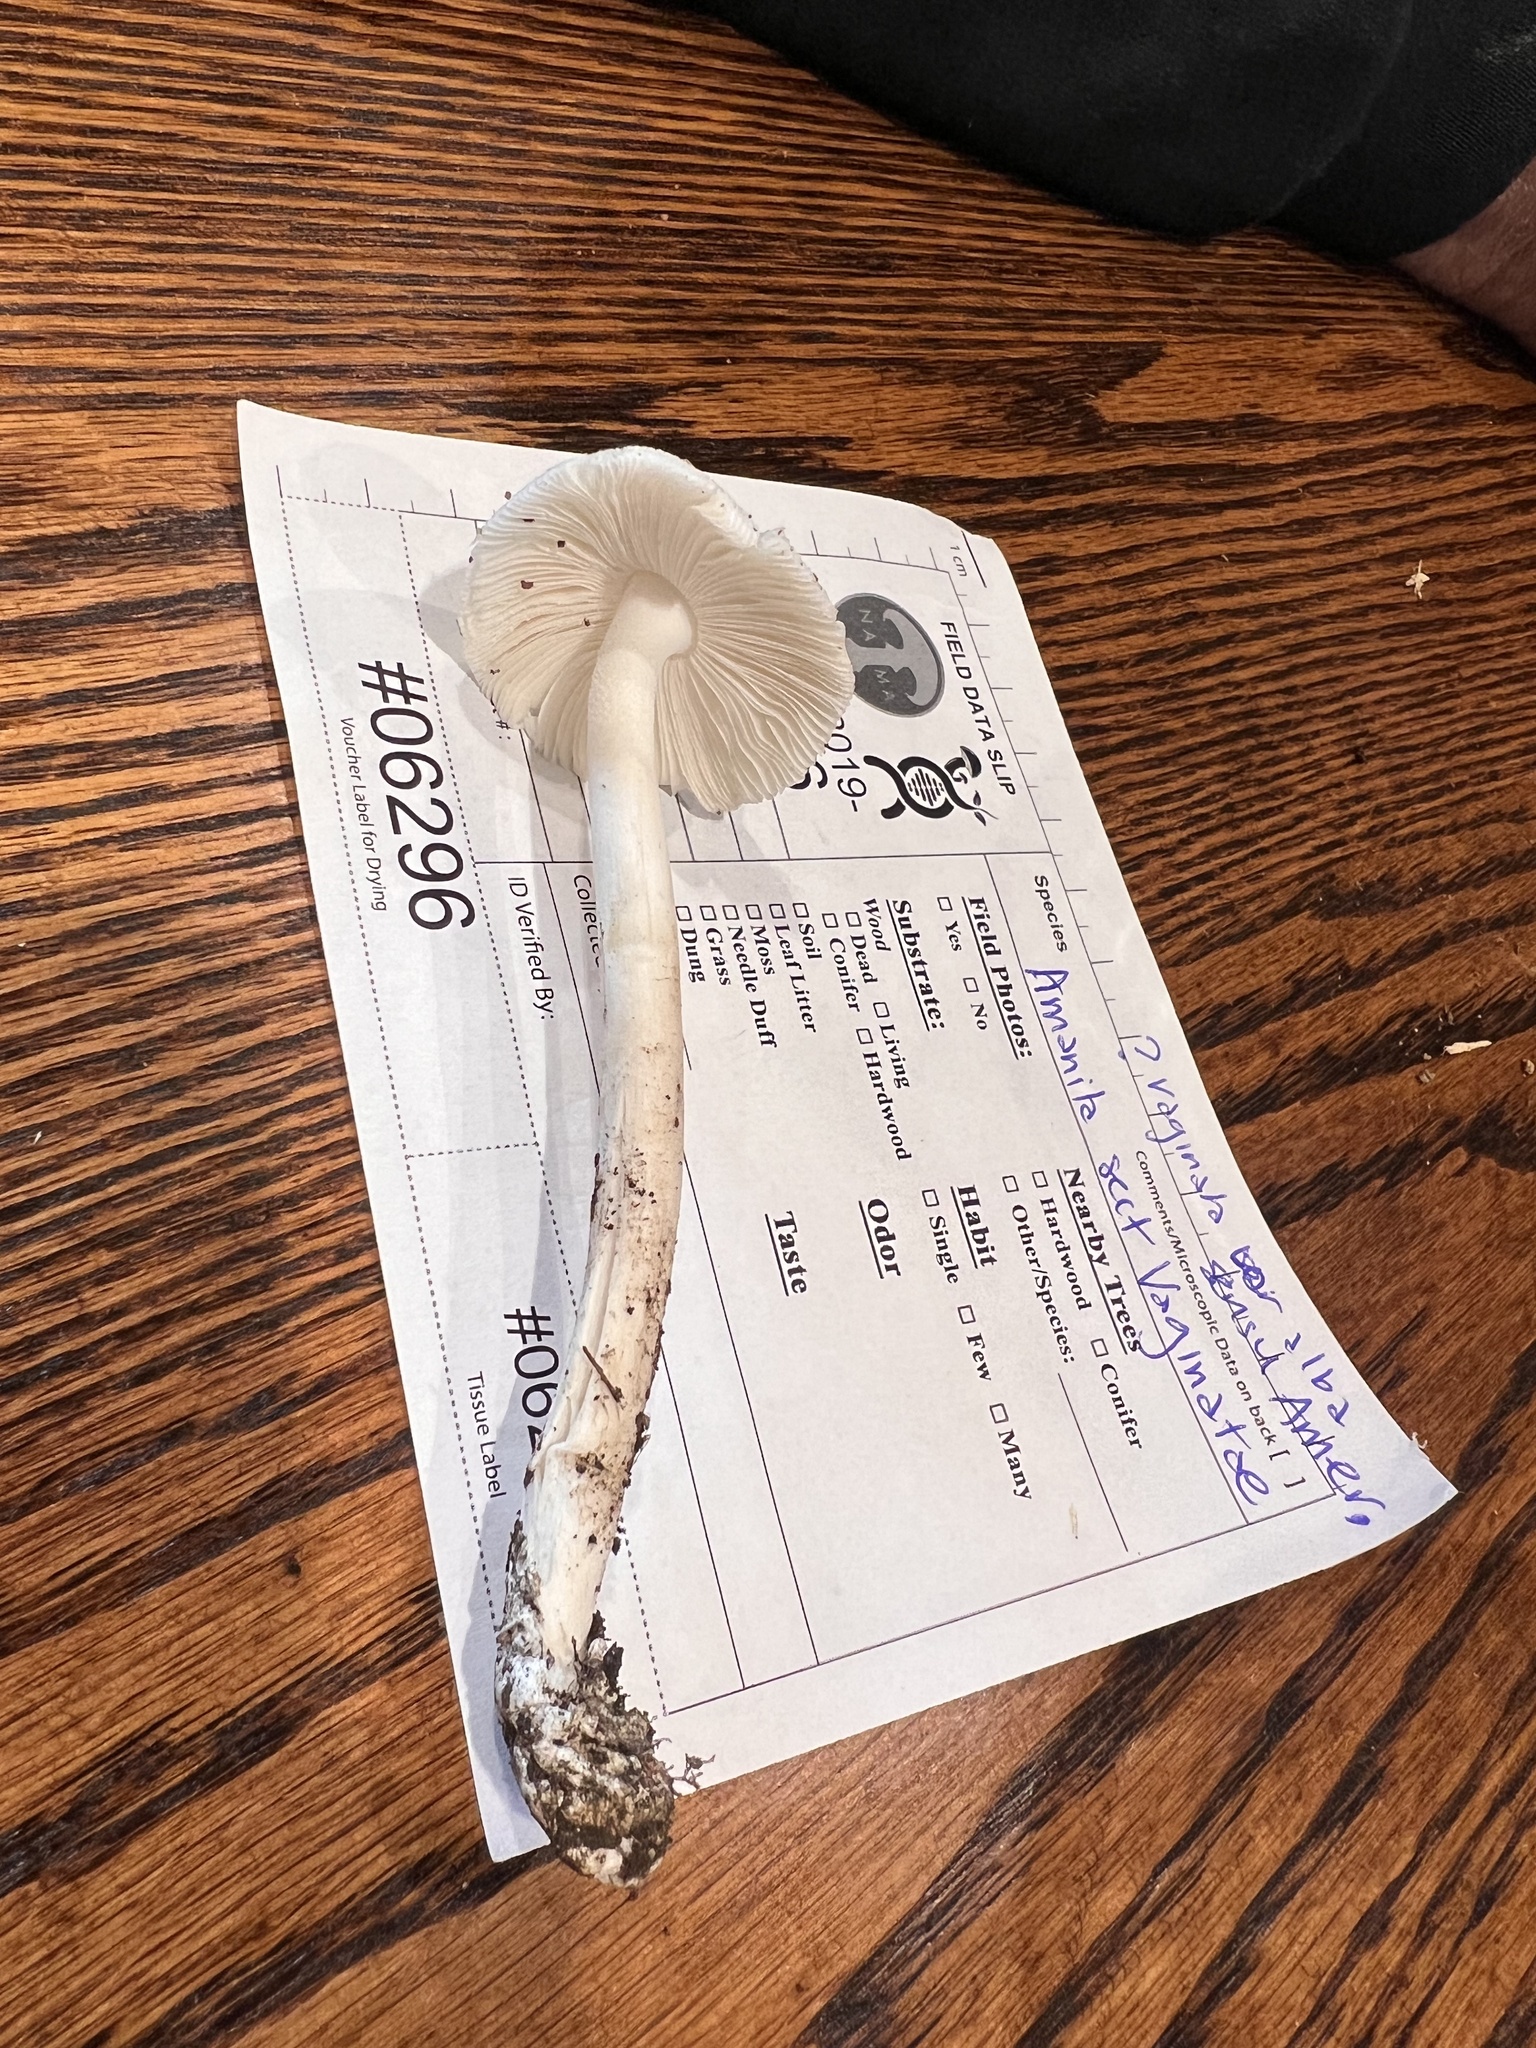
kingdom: Fungi
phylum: Basidiomycota
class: Agaricomycetes
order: Agaricales
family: Amanitaceae
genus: Amanita
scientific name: Amanita amerivirosa
